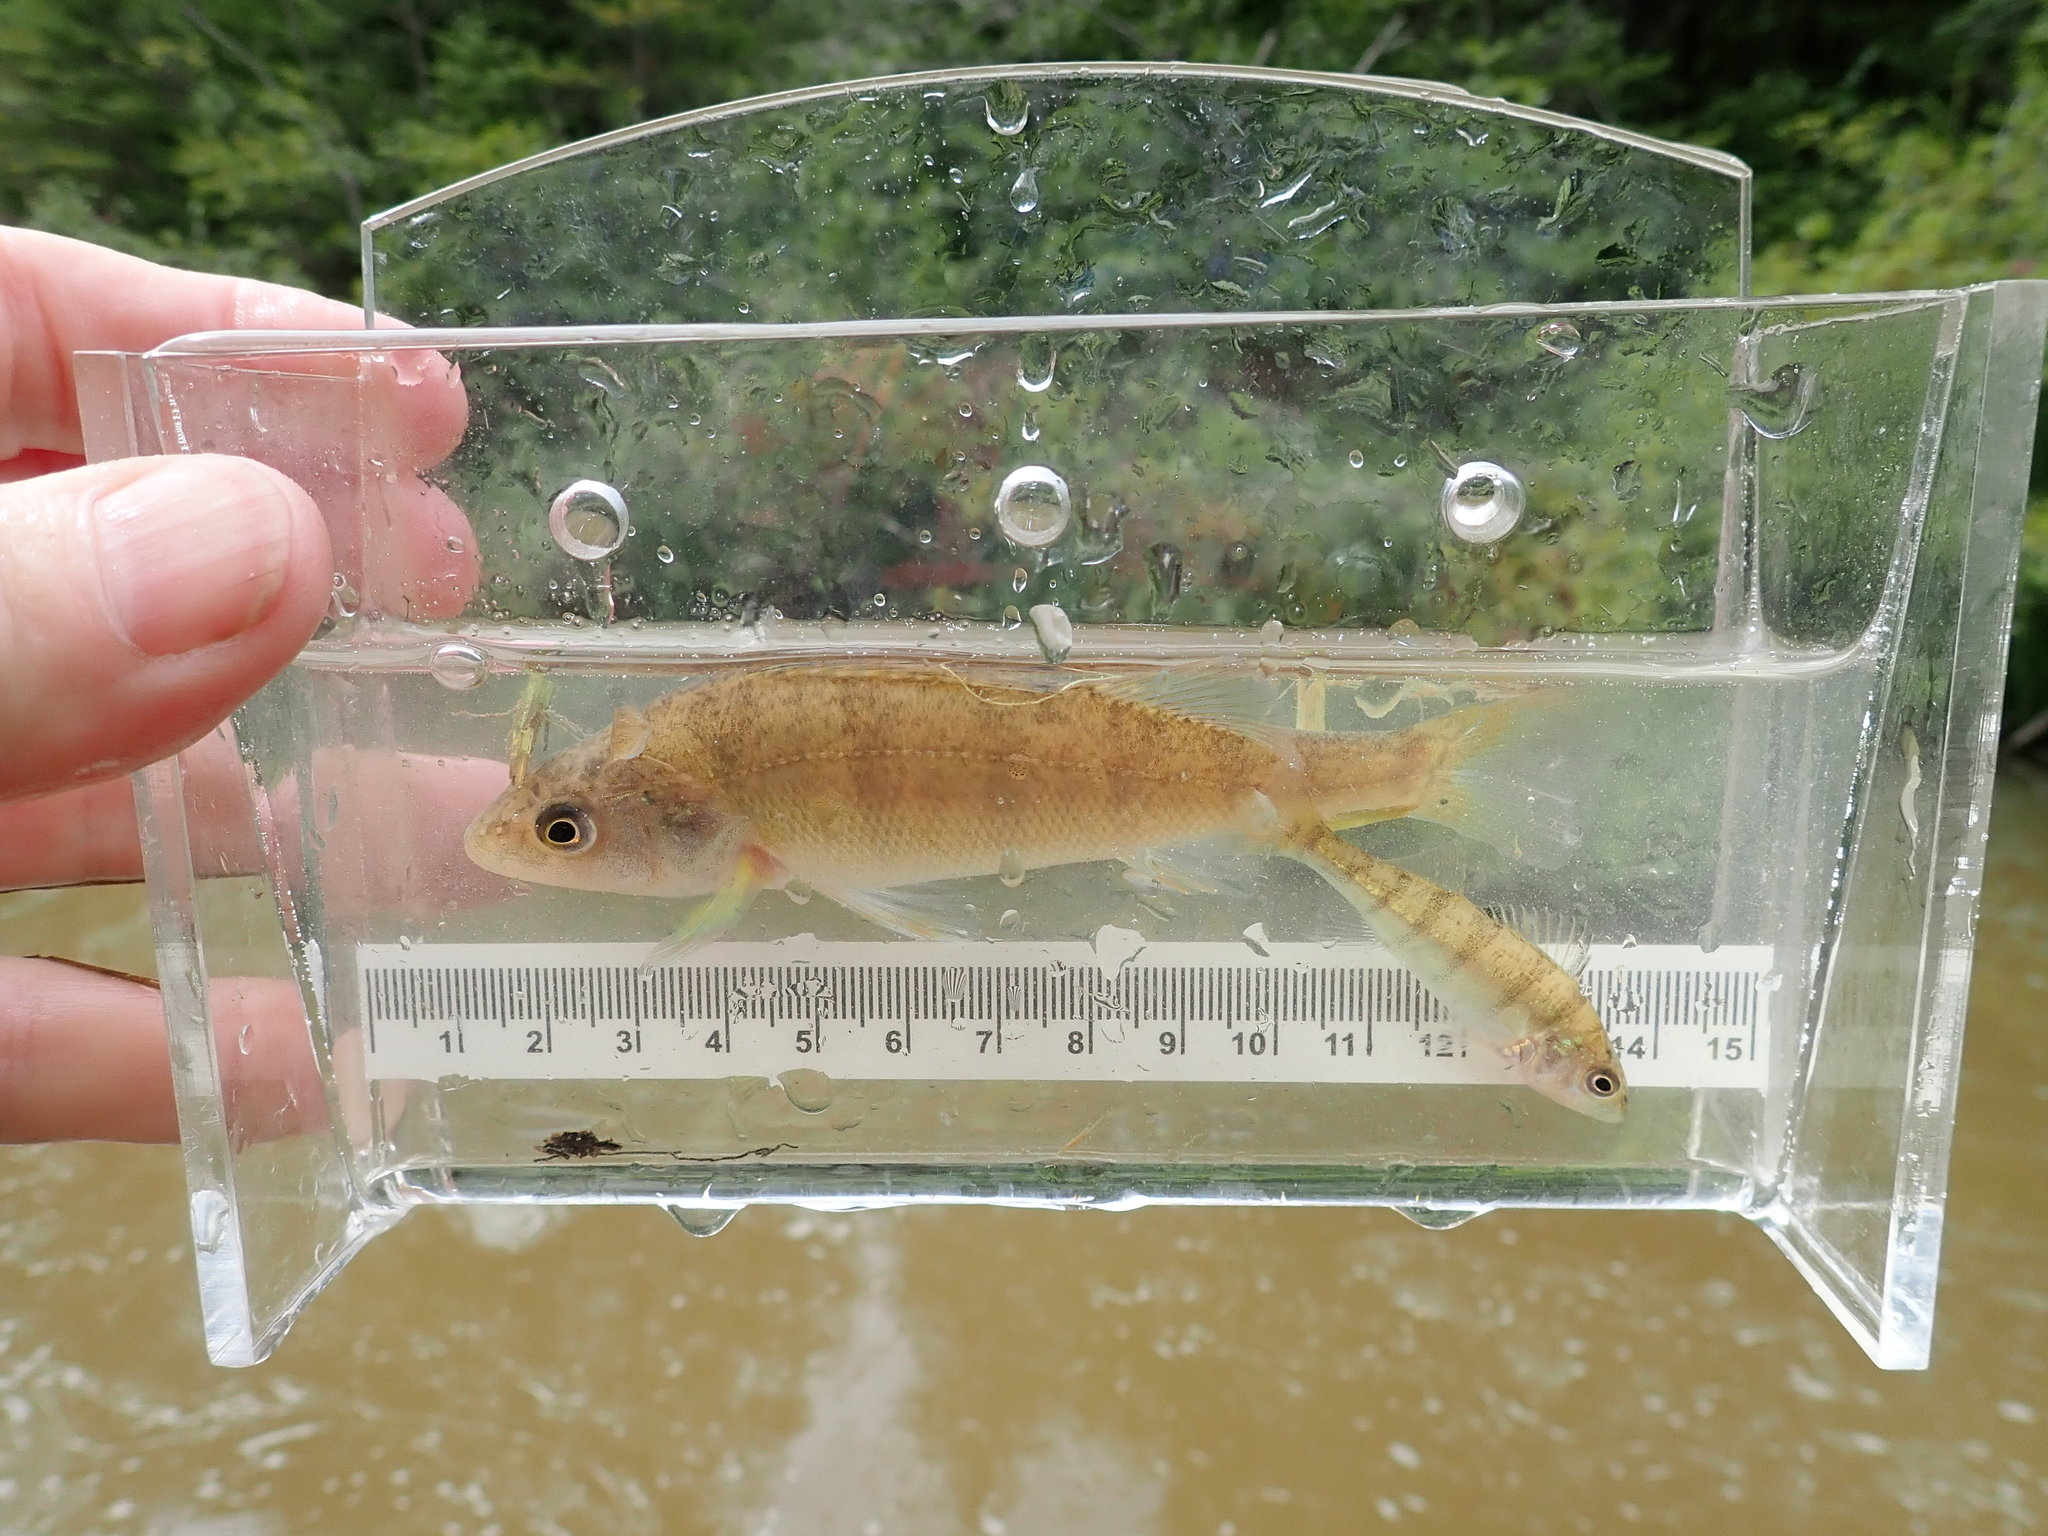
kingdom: Animalia
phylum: Chordata
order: Perciformes
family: Percidae
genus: Perca
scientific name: Perca flavescens
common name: Yellow perch
